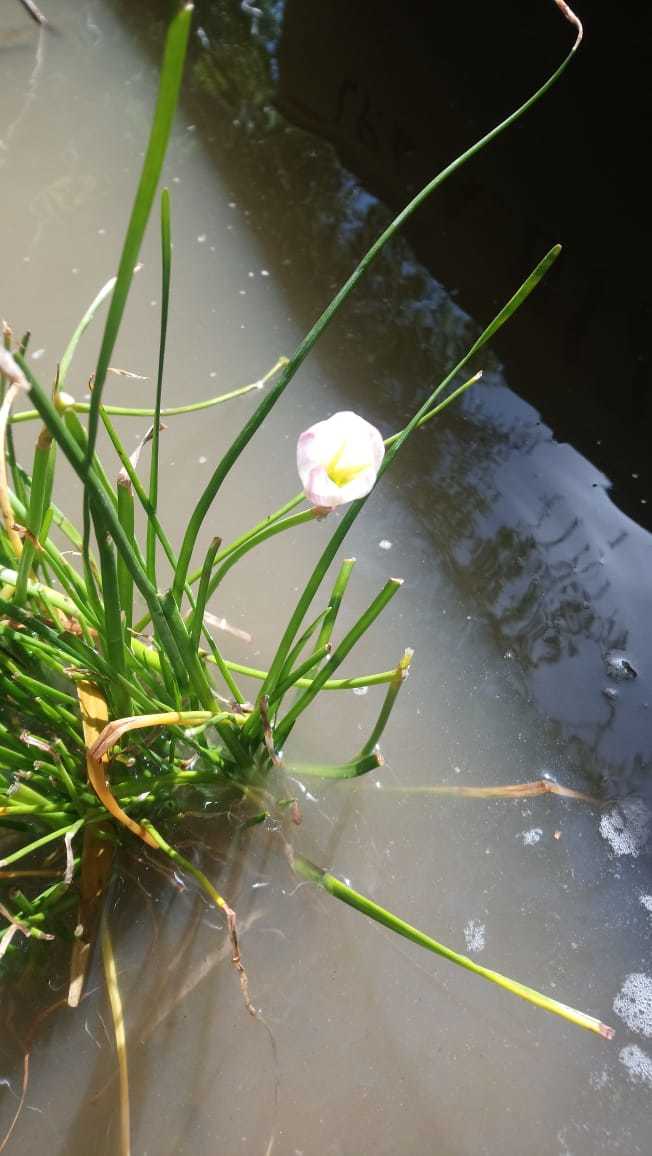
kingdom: Plantae
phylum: Tracheophyta
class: Liliopsida
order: Asparagales
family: Amaryllidaceae
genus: Zephyranthes
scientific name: Zephyranthes candida
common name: Autumn zephyrlily
